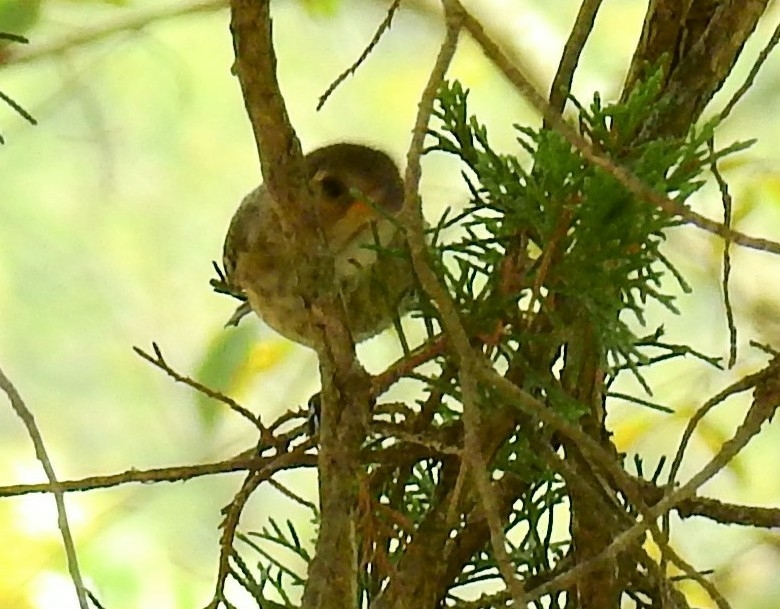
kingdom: Animalia
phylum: Chordata
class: Aves
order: Passeriformes
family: Cardinalidae
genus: Passerina
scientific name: Passerina cyanea
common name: Indigo bunting
